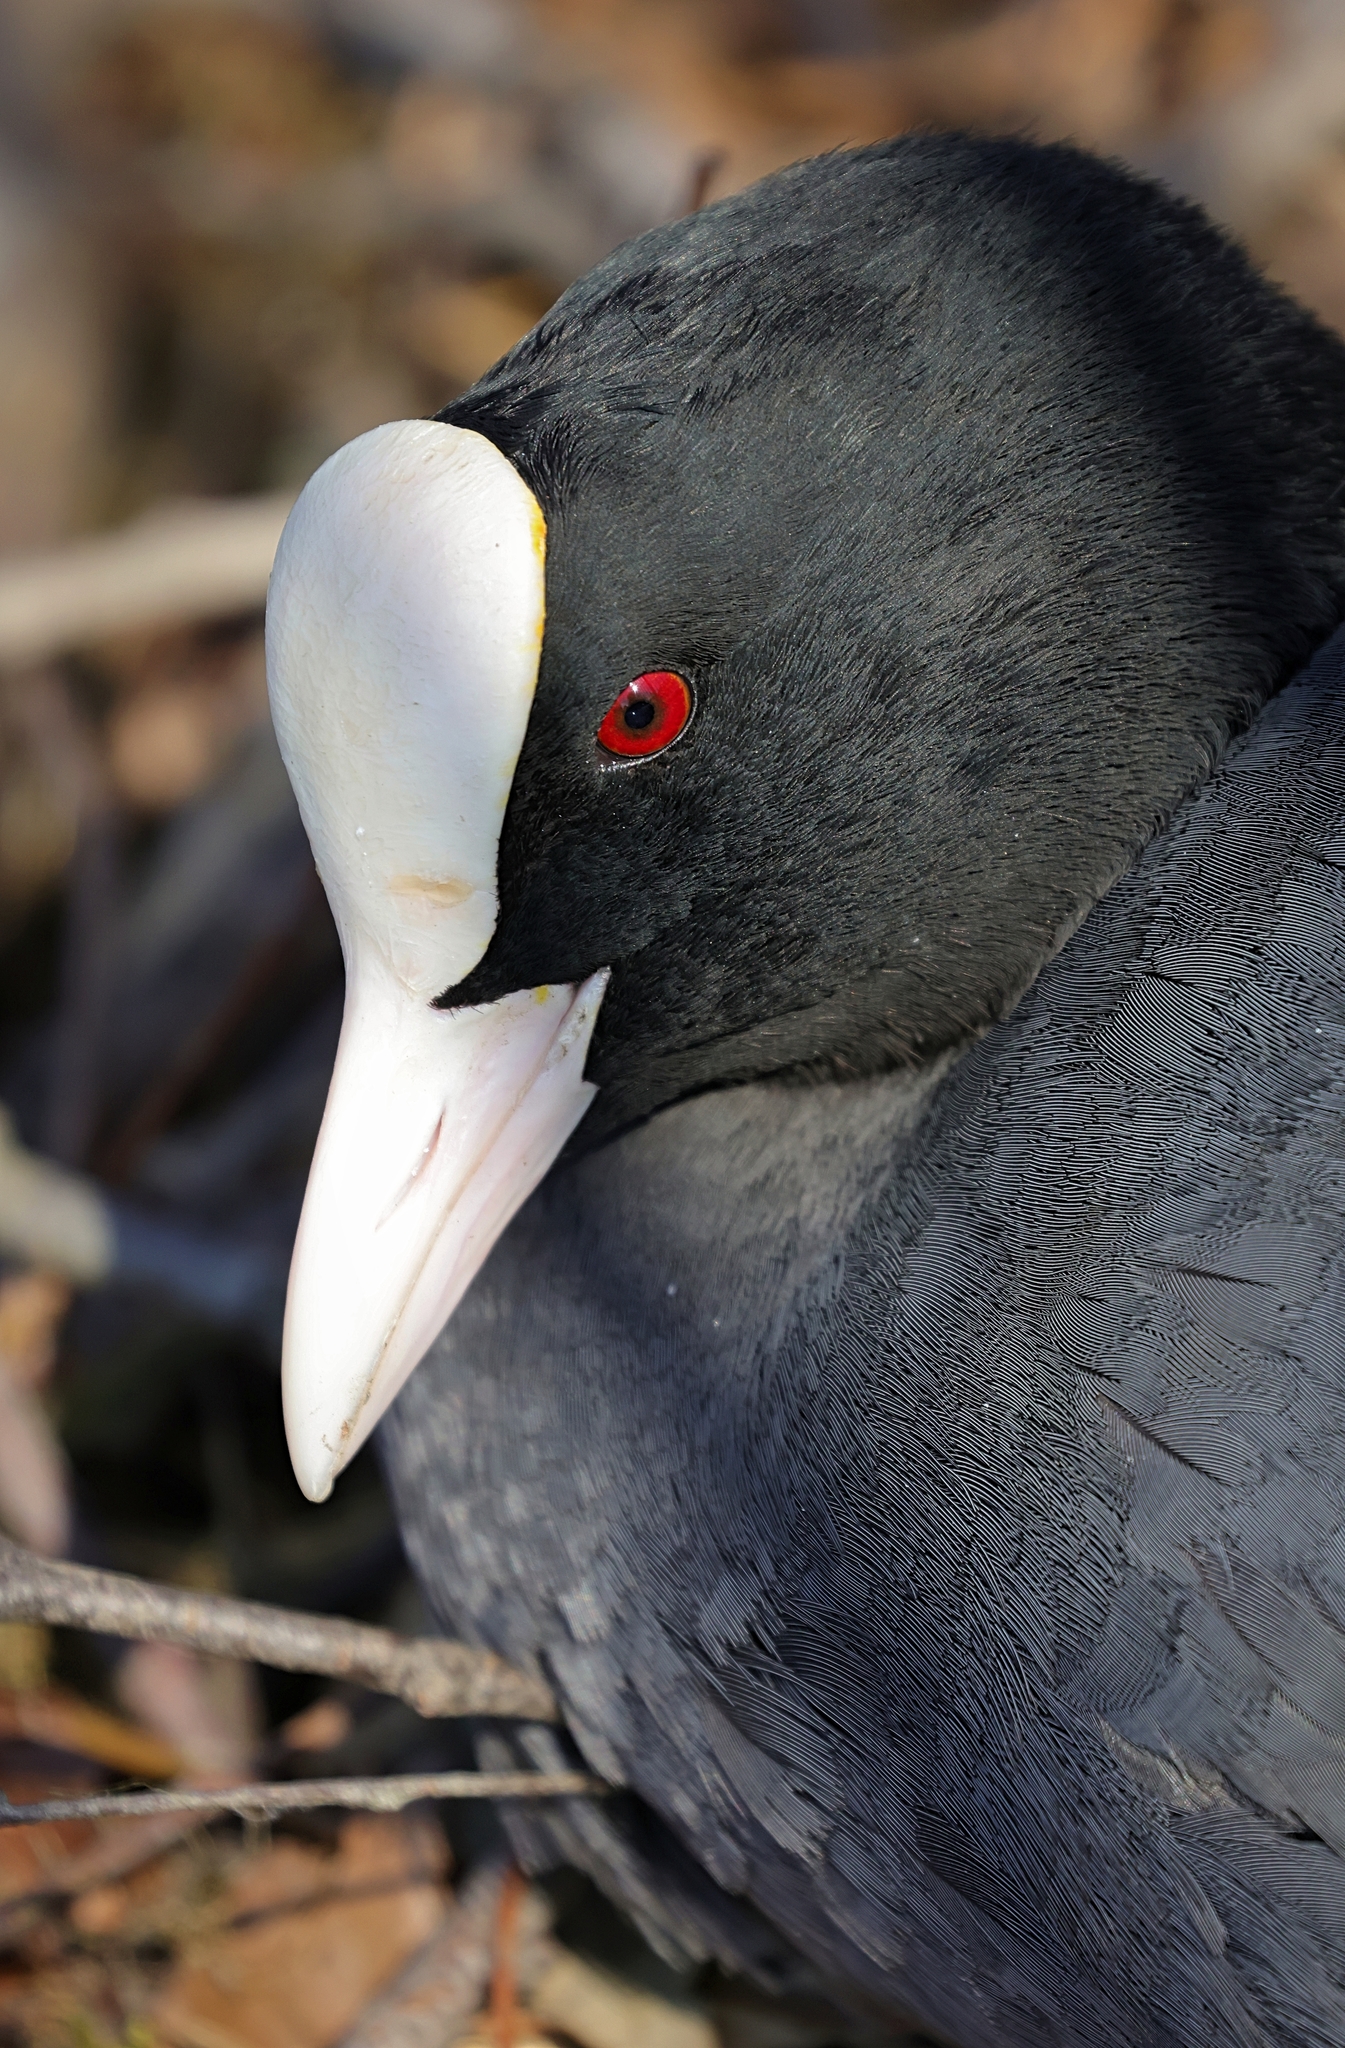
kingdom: Animalia
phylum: Chordata
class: Aves
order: Gruiformes
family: Rallidae
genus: Fulica
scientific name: Fulica atra
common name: Eurasian coot
